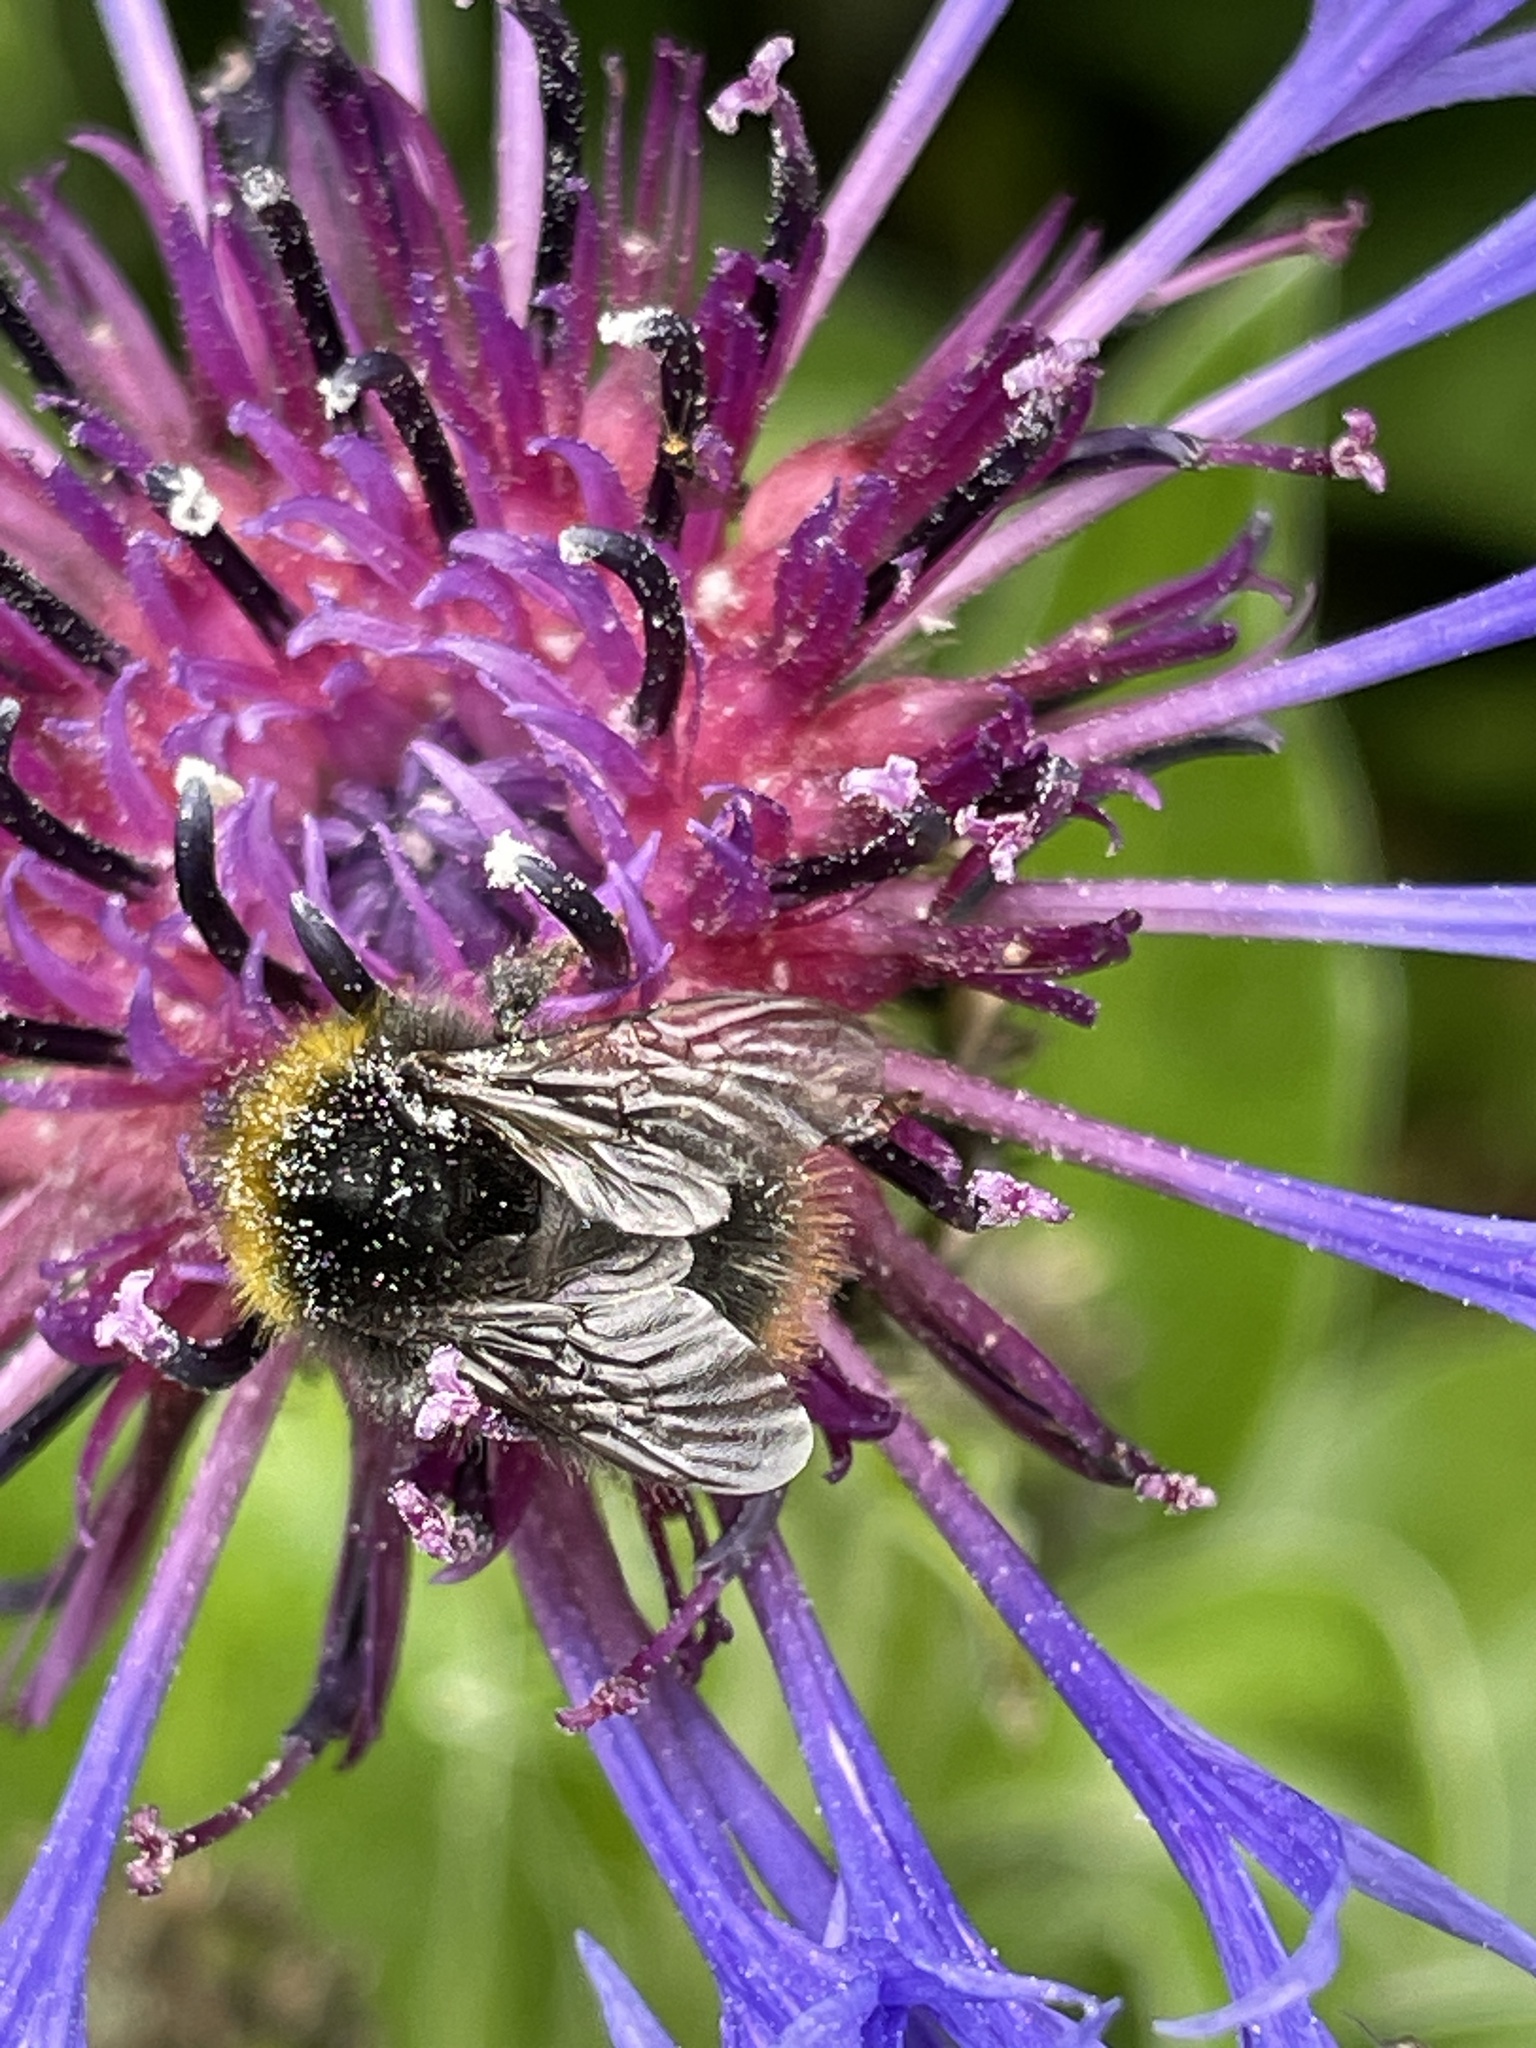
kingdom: Animalia
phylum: Arthropoda
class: Insecta
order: Hymenoptera
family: Apidae
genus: Bombus
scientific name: Bombus pratorum
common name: Early humble-bee
